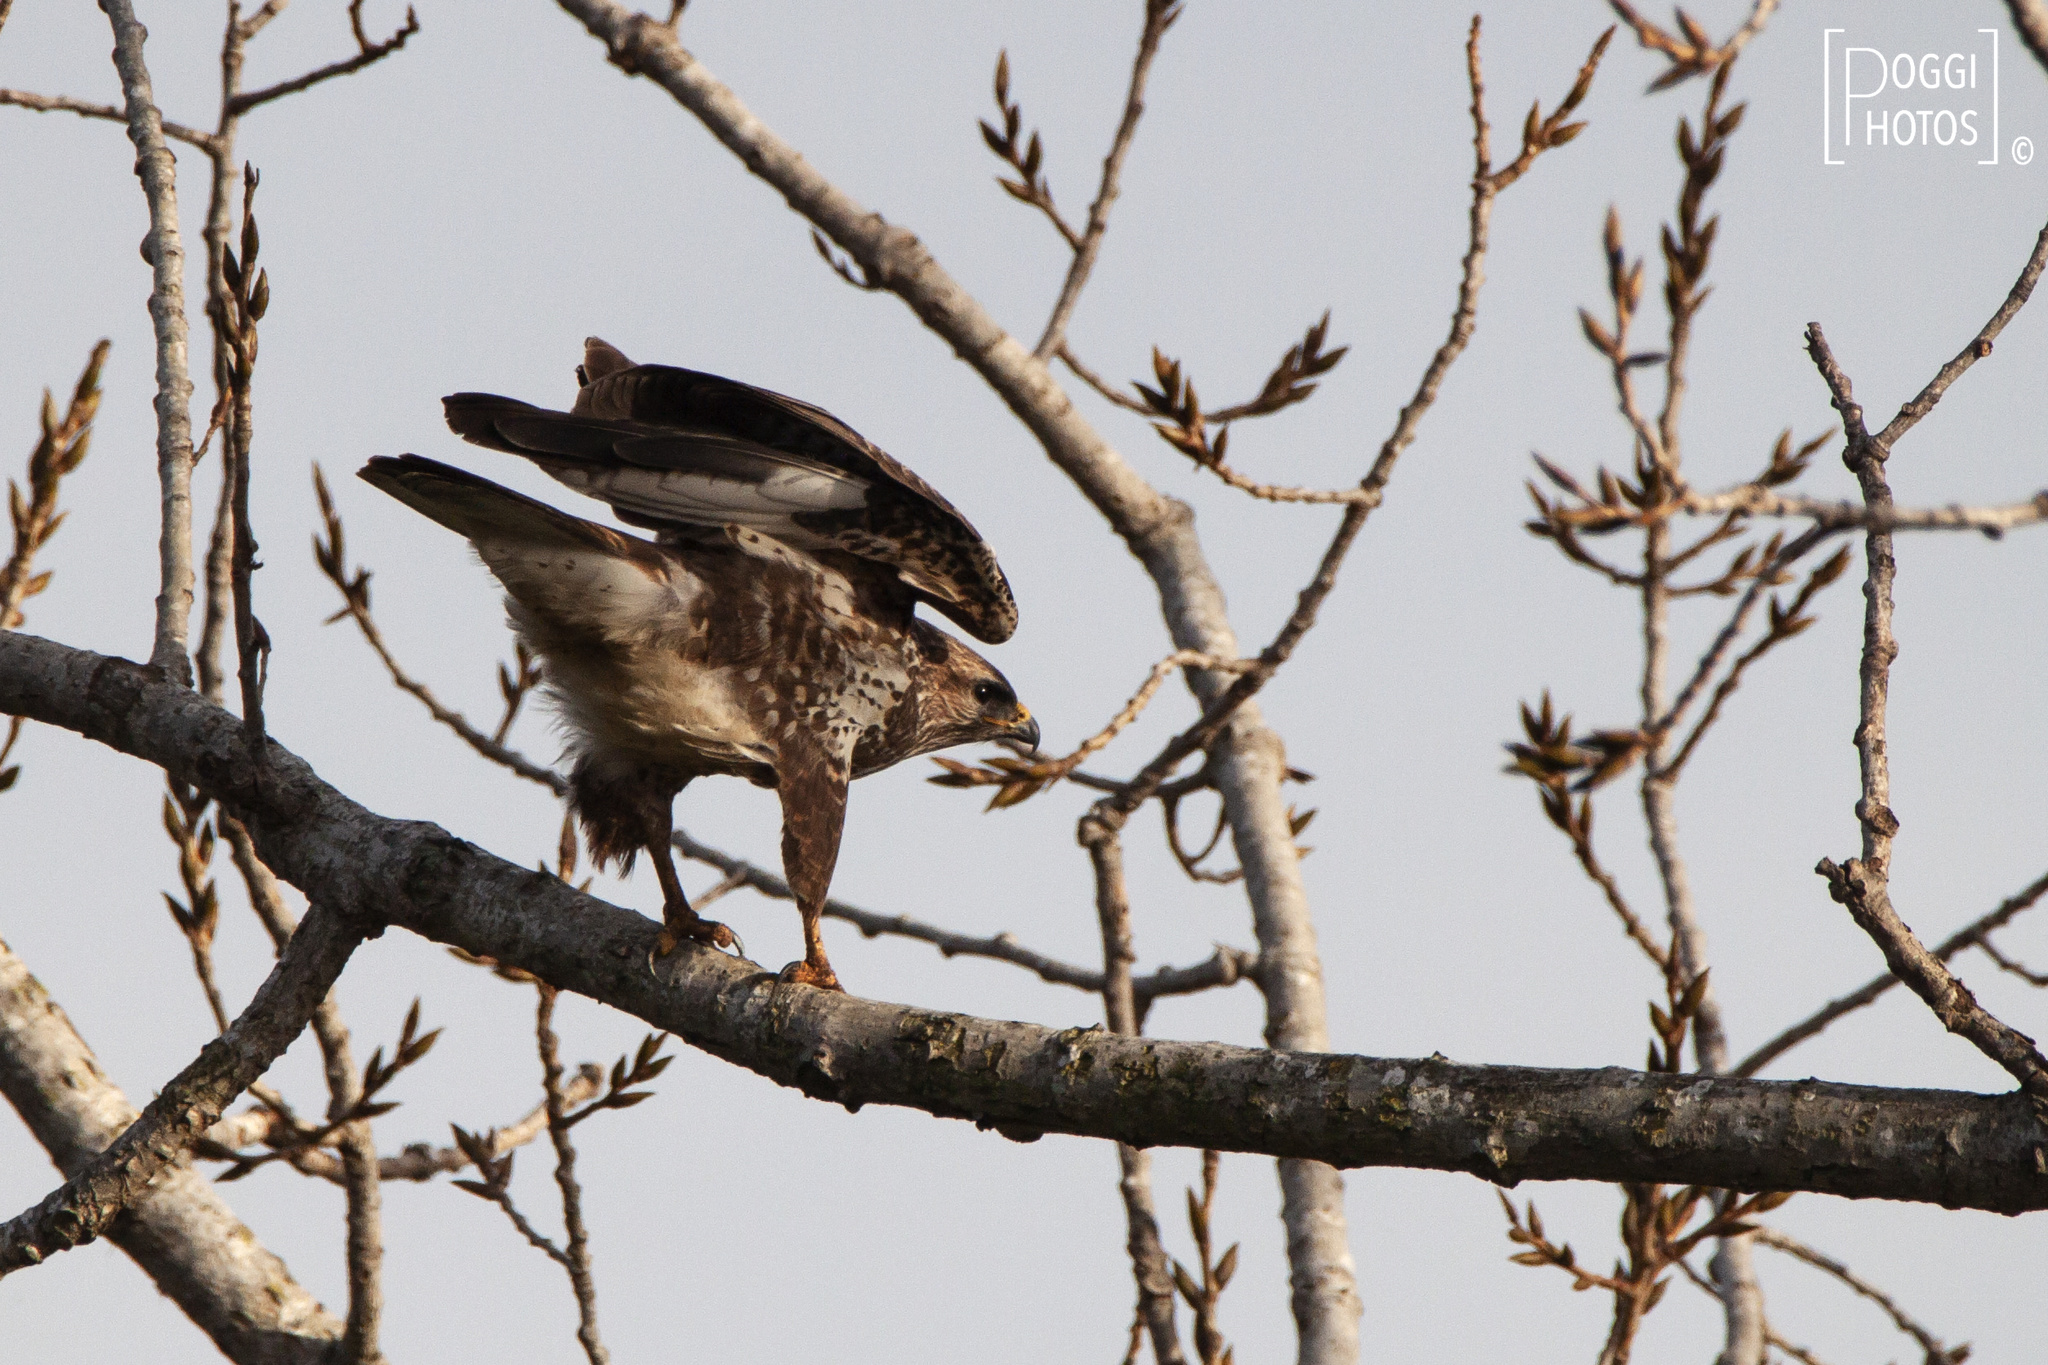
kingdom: Animalia
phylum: Chordata
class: Aves
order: Accipitriformes
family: Accipitridae
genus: Buteo
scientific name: Buteo buteo
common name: Common buzzard
